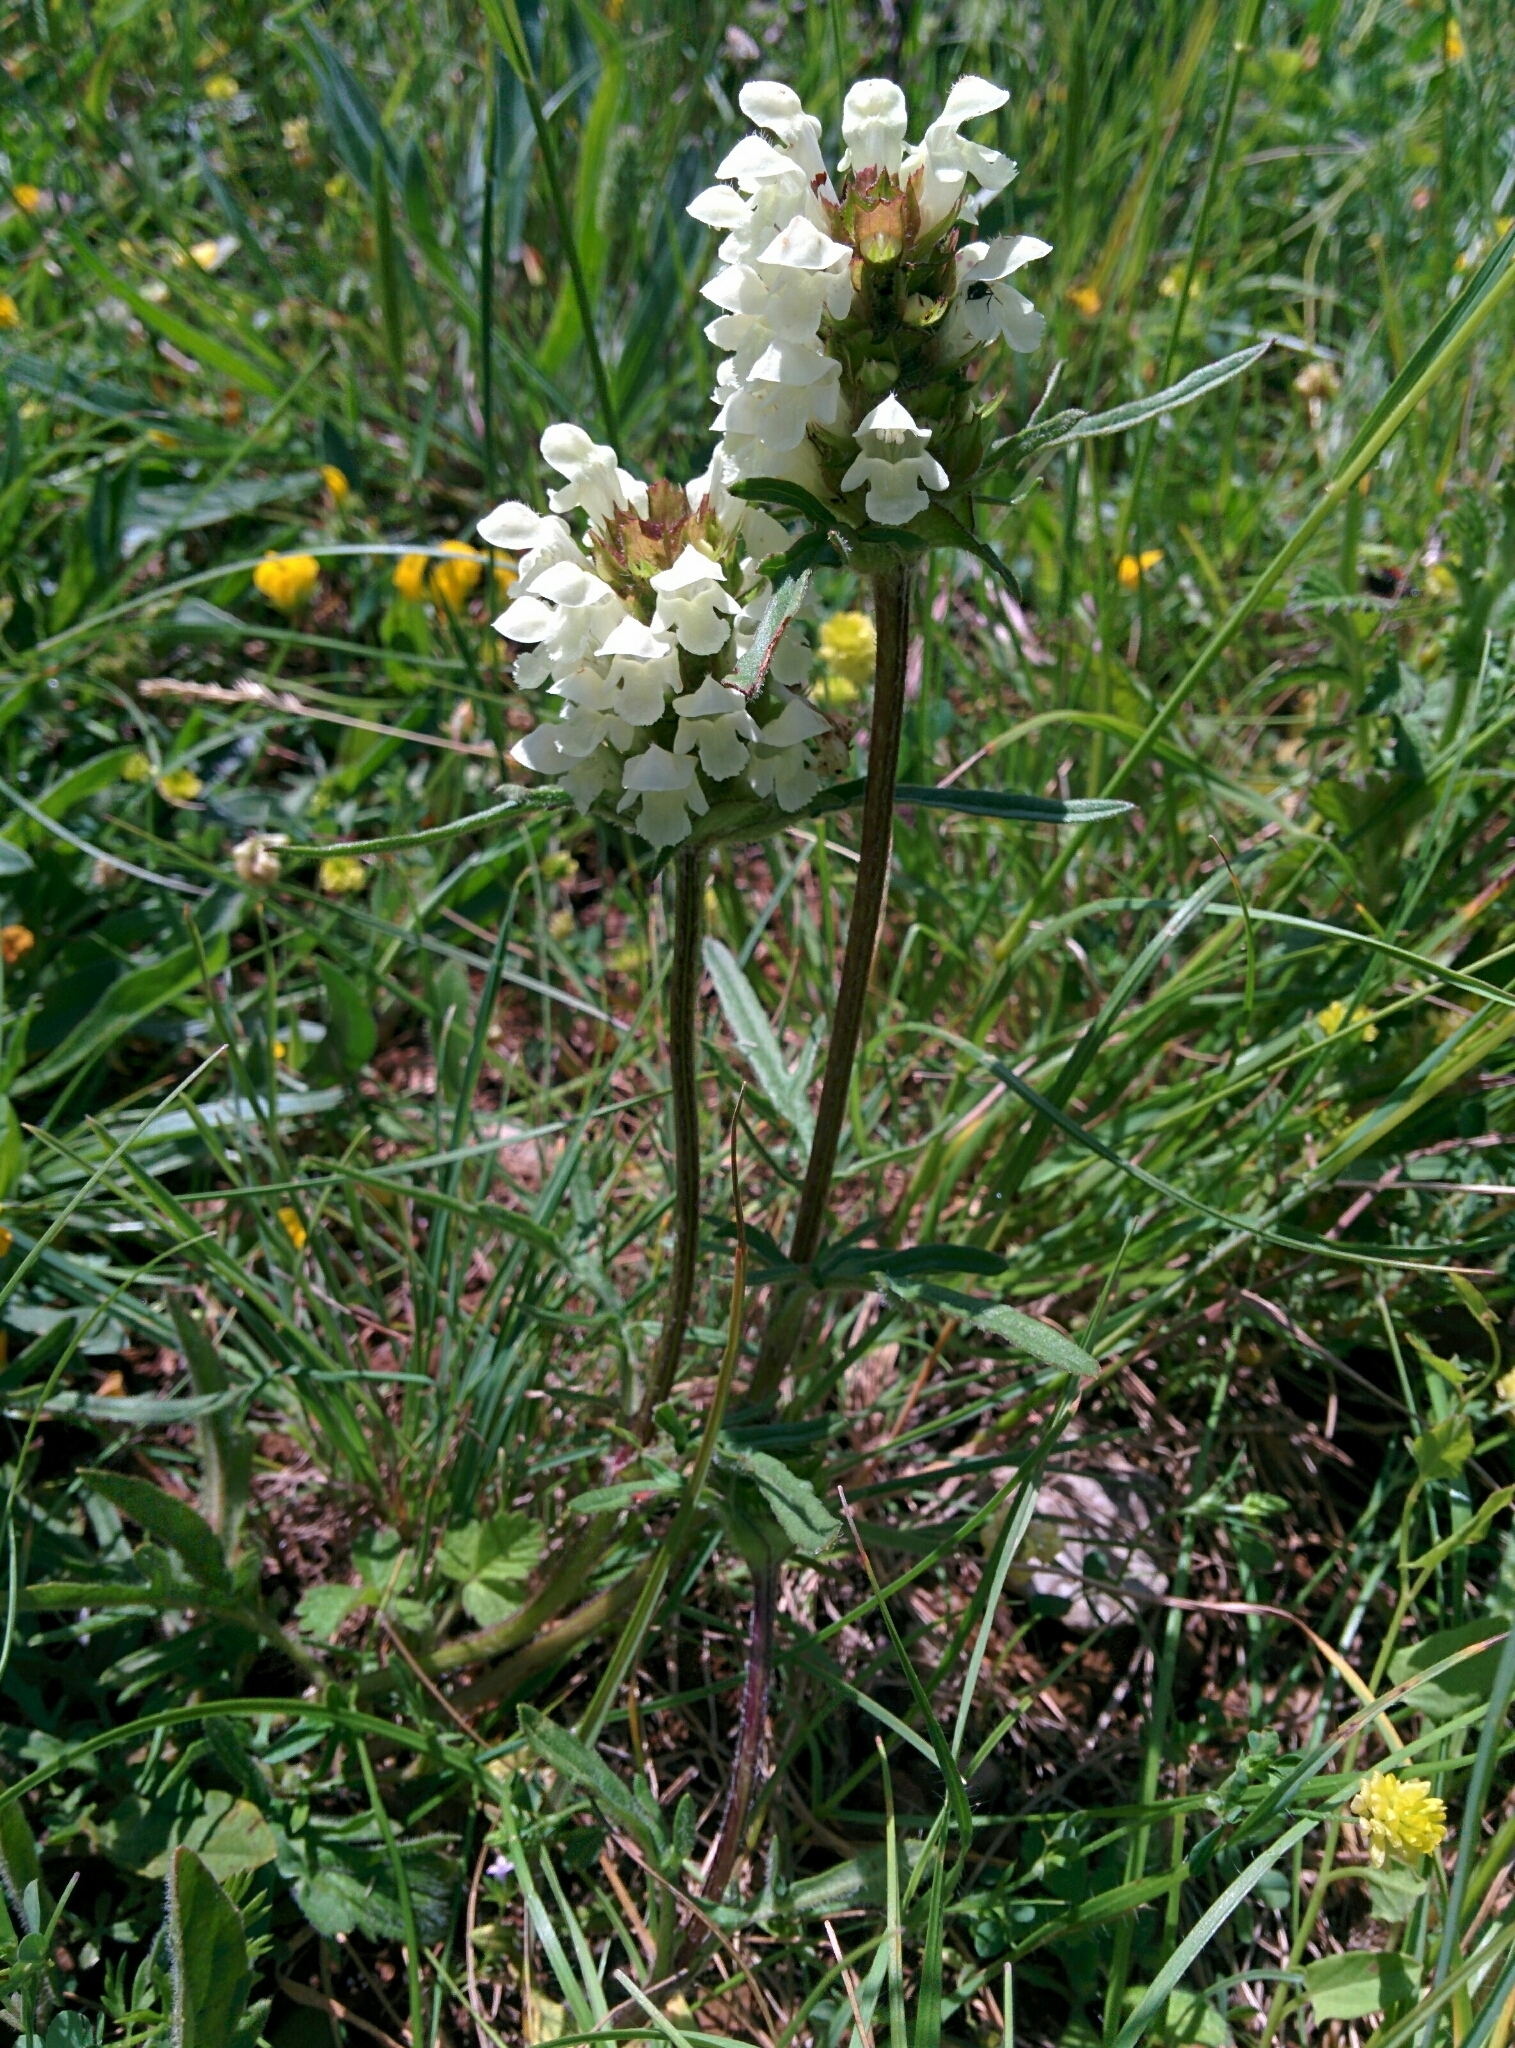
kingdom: Plantae
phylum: Tracheophyta
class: Magnoliopsida
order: Lamiales
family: Lamiaceae
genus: Prunella
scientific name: Prunella laciniata
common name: Cut-leaved selfheal
